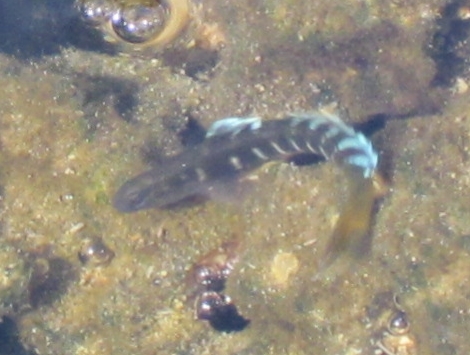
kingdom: Animalia
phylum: Chordata
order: Perciformes
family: Gobiidae
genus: Kelloggella
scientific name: Kelloggella oligolepis
